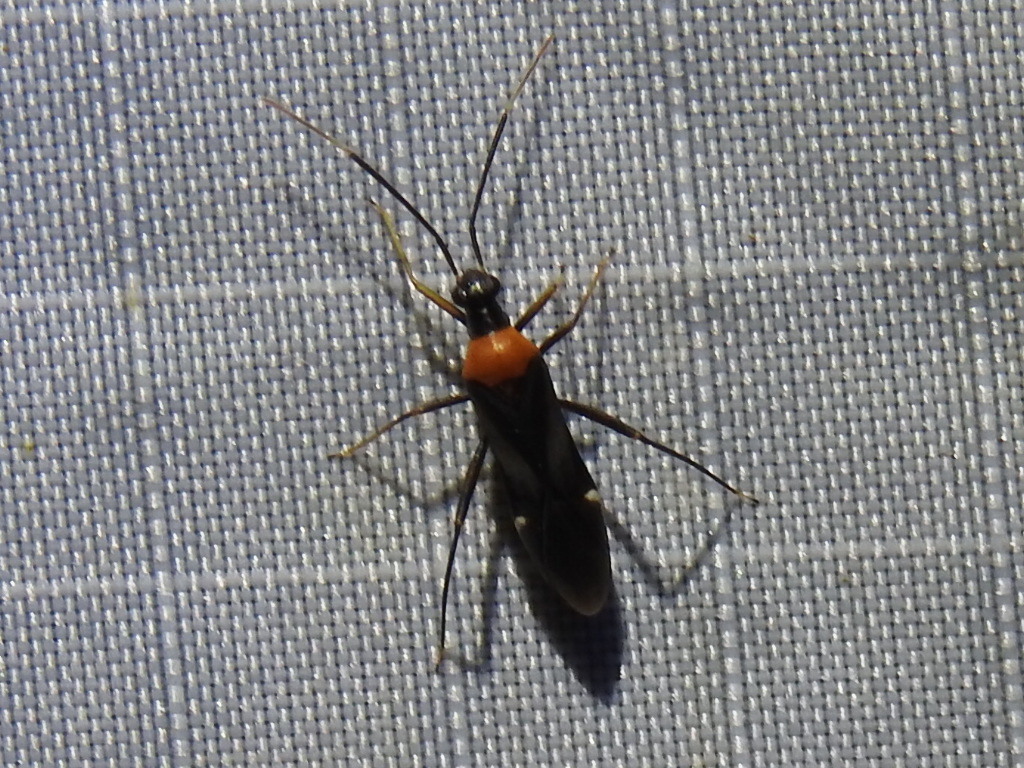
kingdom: Animalia
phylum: Arthropoda
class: Insecta
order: Hemiptera
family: Miridae
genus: Pseudoxenetus
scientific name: Pseudoxenetus regalis
